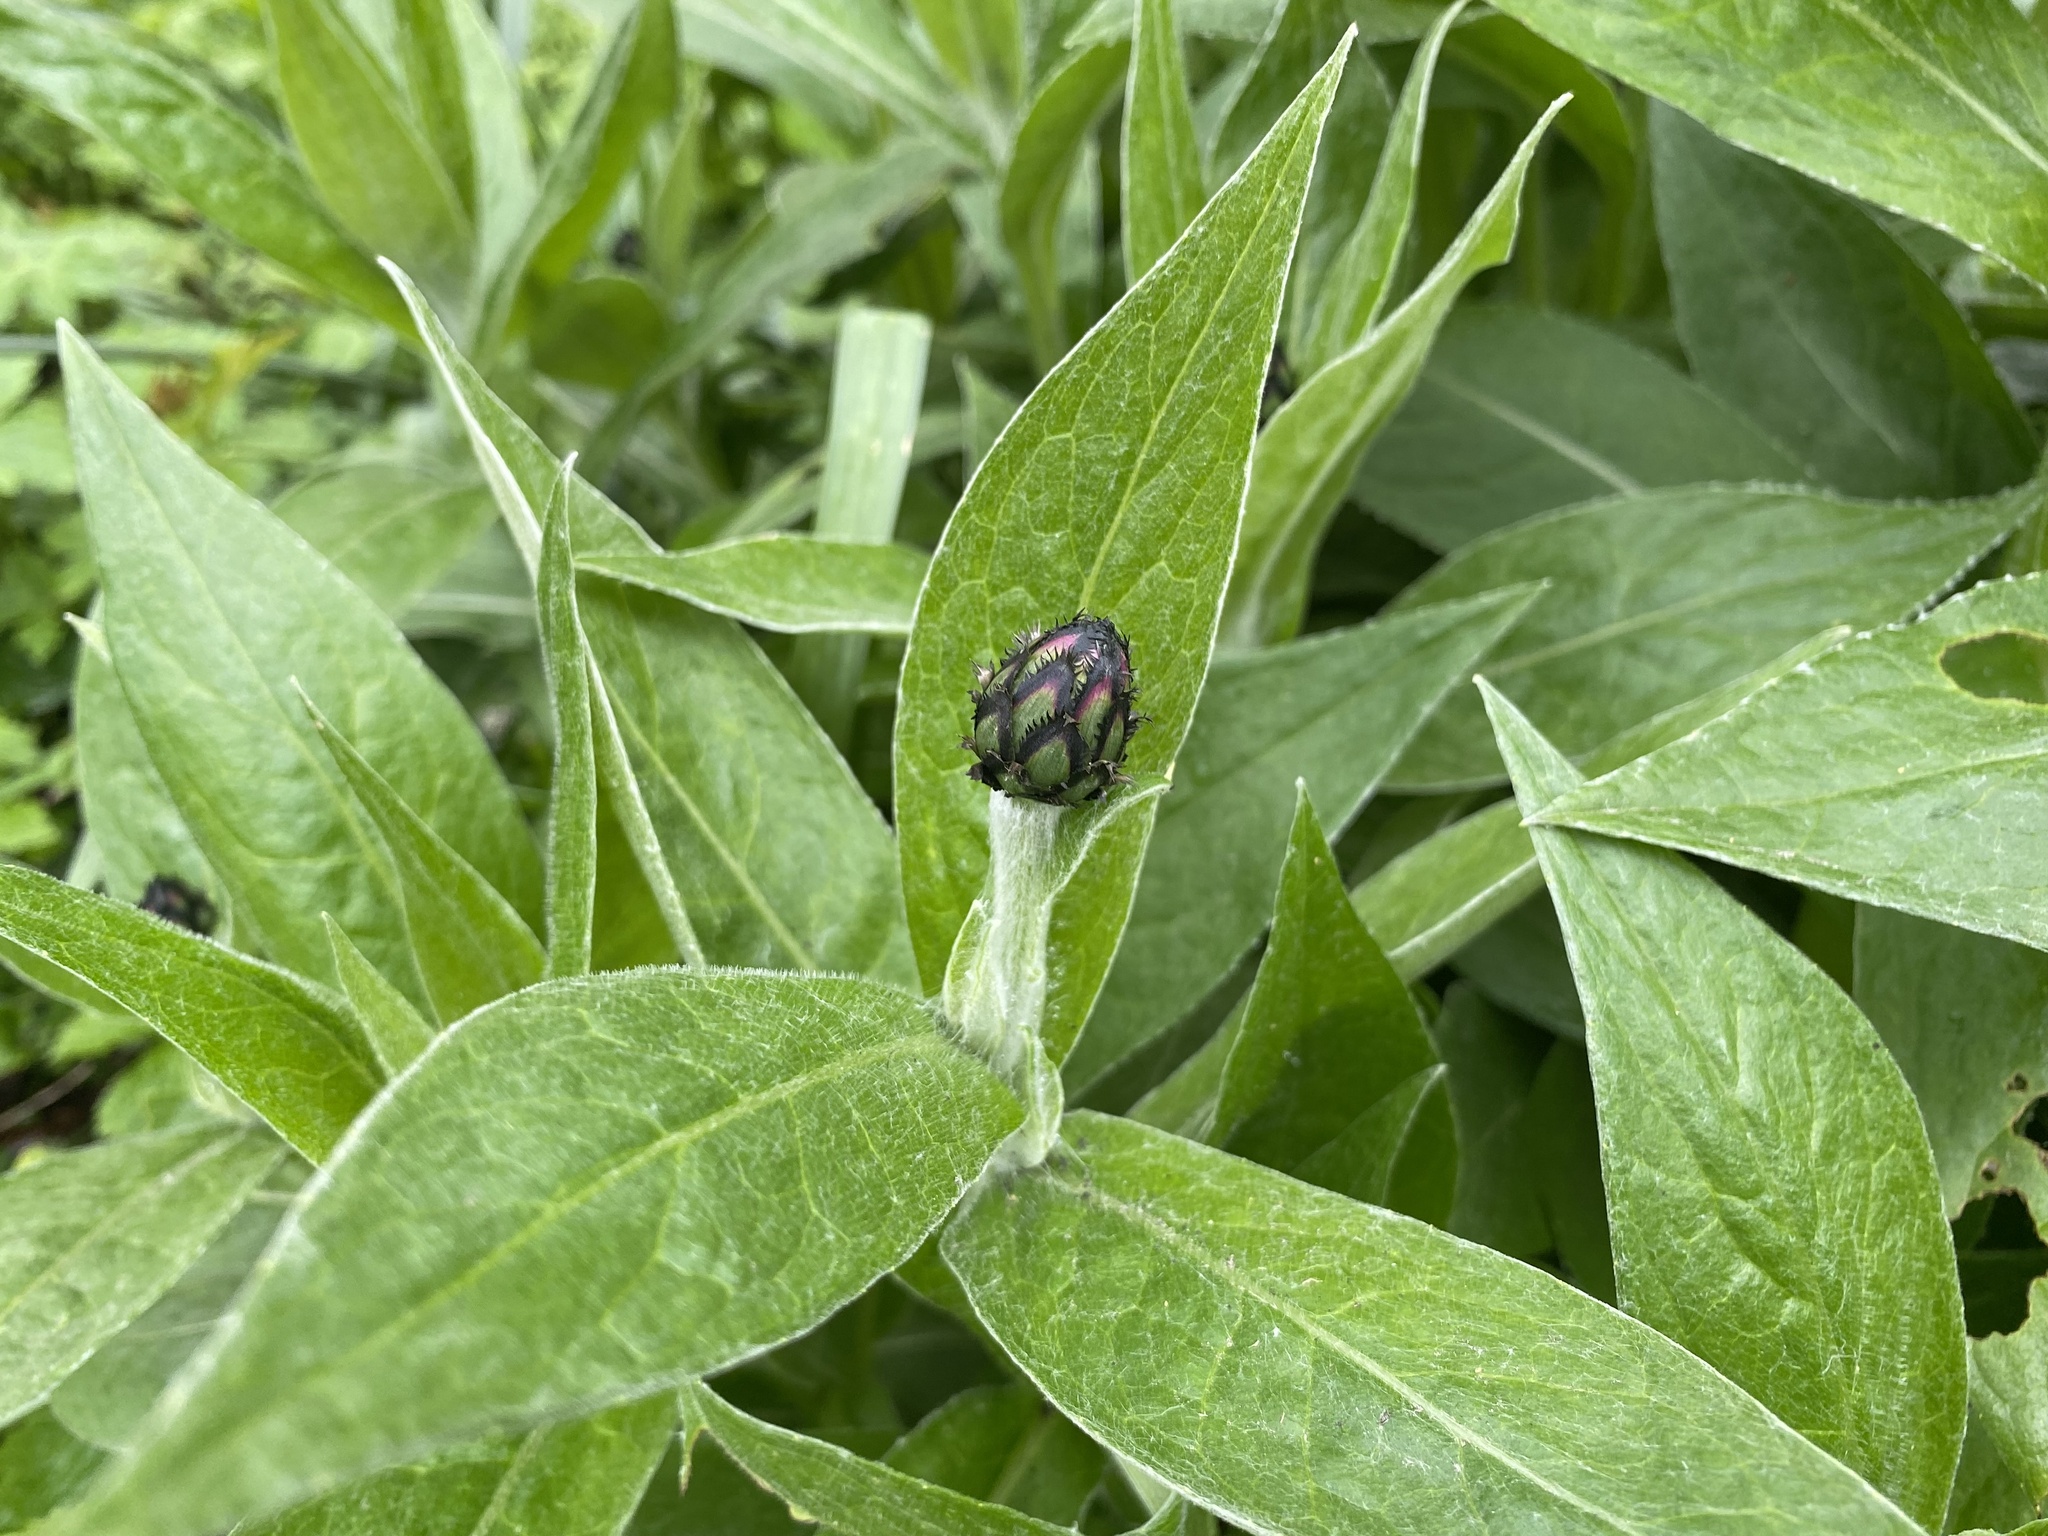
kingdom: Plantae
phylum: Tracheophyta
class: Magnoliopsida
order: Asterales
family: Asteraceae
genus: Centaurea
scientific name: Centaurea montana
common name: Perennial cornflower
